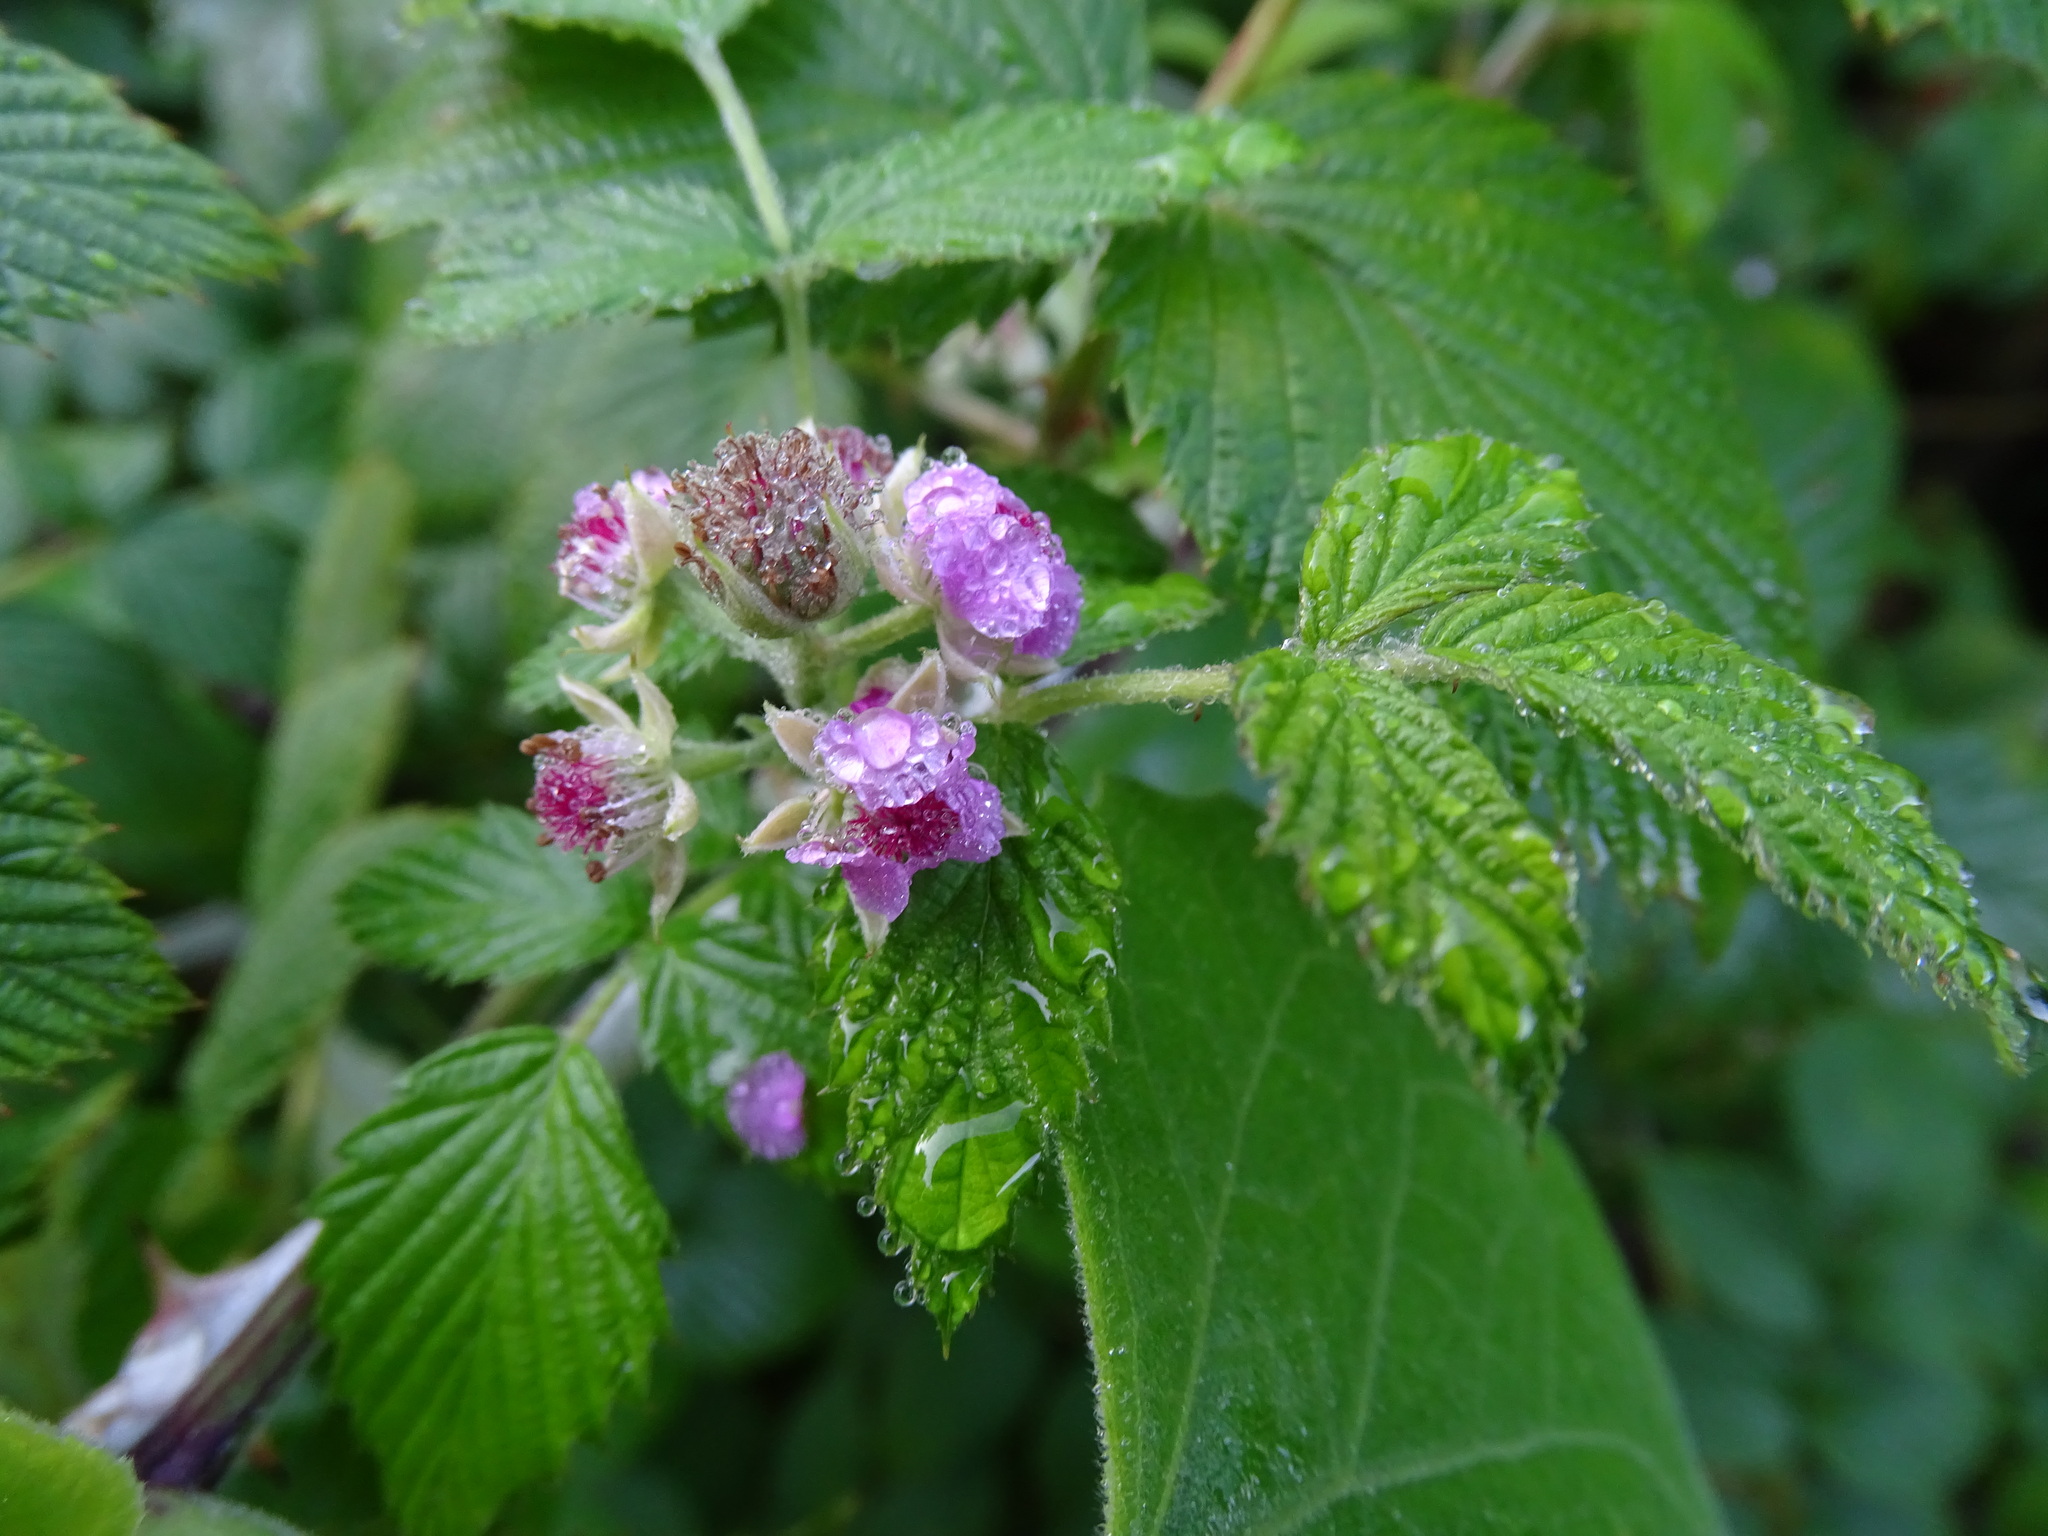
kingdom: Plantae
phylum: Tracheophyta
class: Magnoliopsida
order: Rosales
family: Rosaceae
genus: Rubus
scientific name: Rubus niveus
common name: Snowpeaks raspberry
